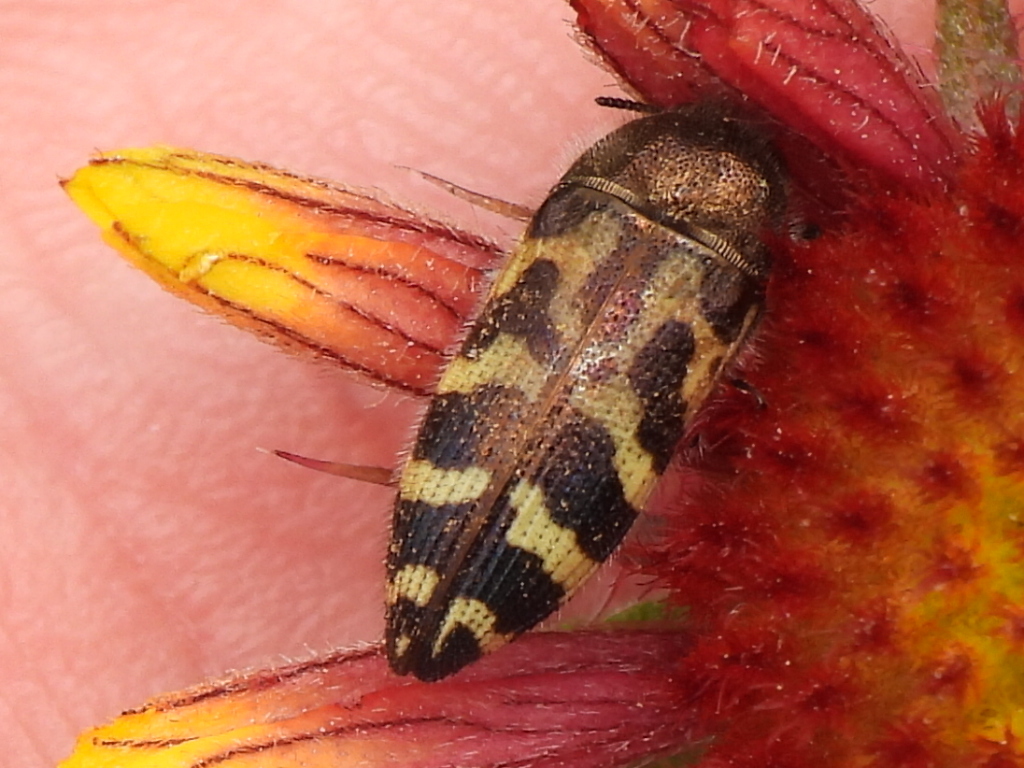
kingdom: Animalia
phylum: Arthropoda
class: Insecta
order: Coleoptera
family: Buprestidae
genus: Acmaeodera
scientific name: Acmaeodera mixta
